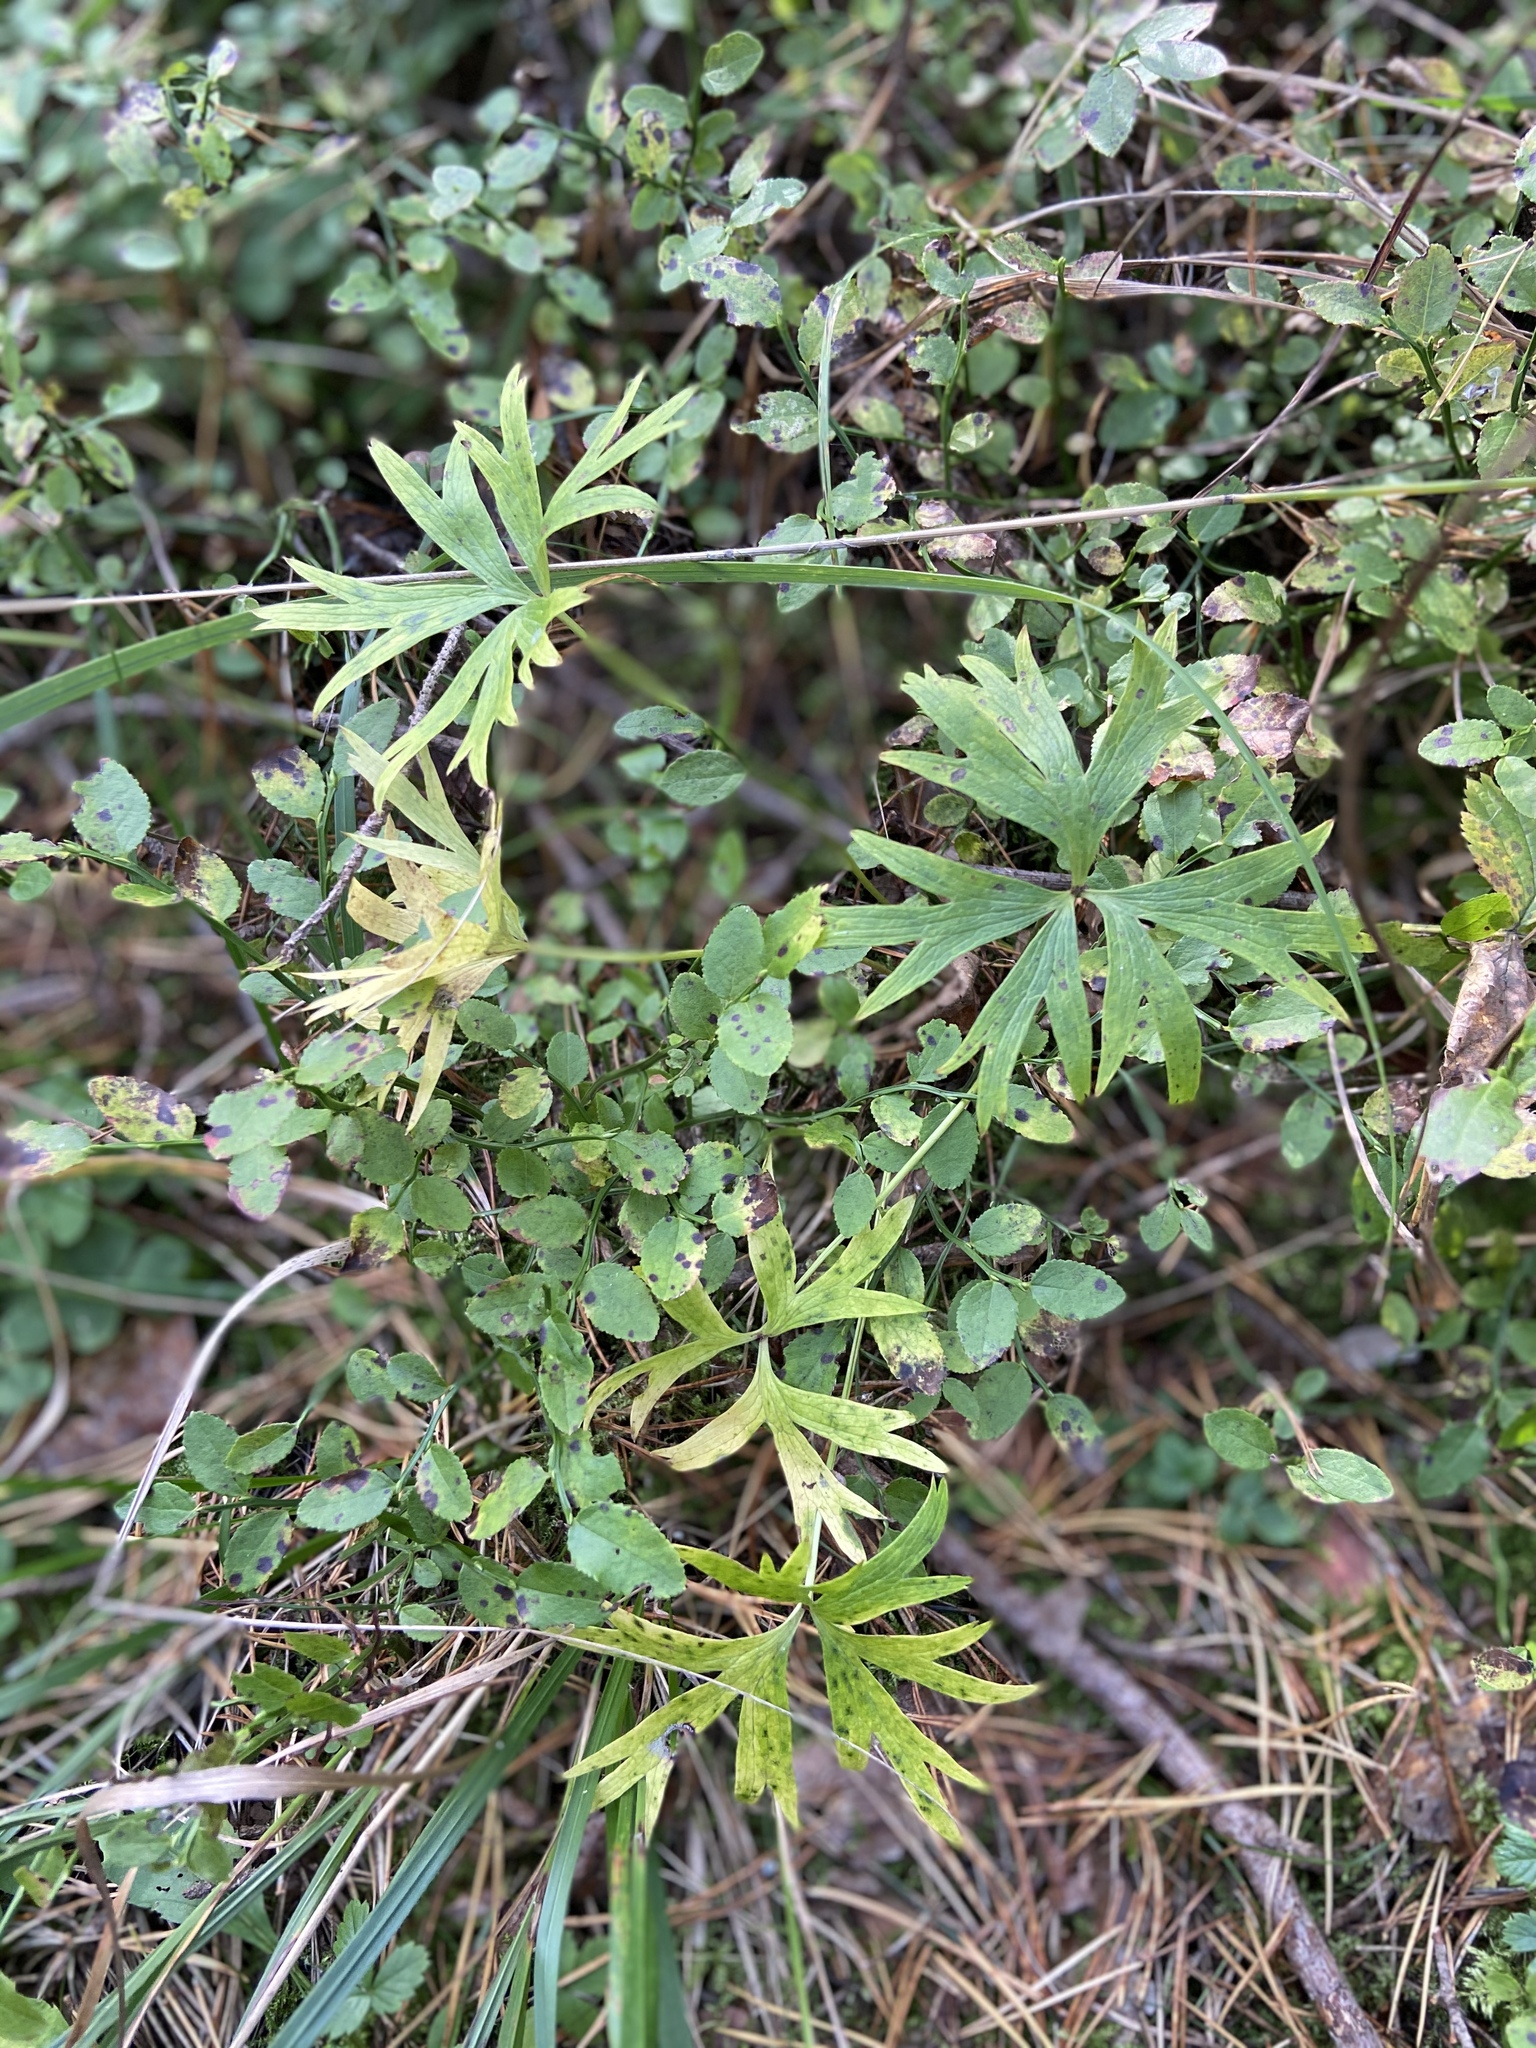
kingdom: Plantae
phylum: Tracheophyta
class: Magnoliopsida
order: Ranunculales
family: Ranunculaceae
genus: Pulsatilla
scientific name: Pulsatilla patens
